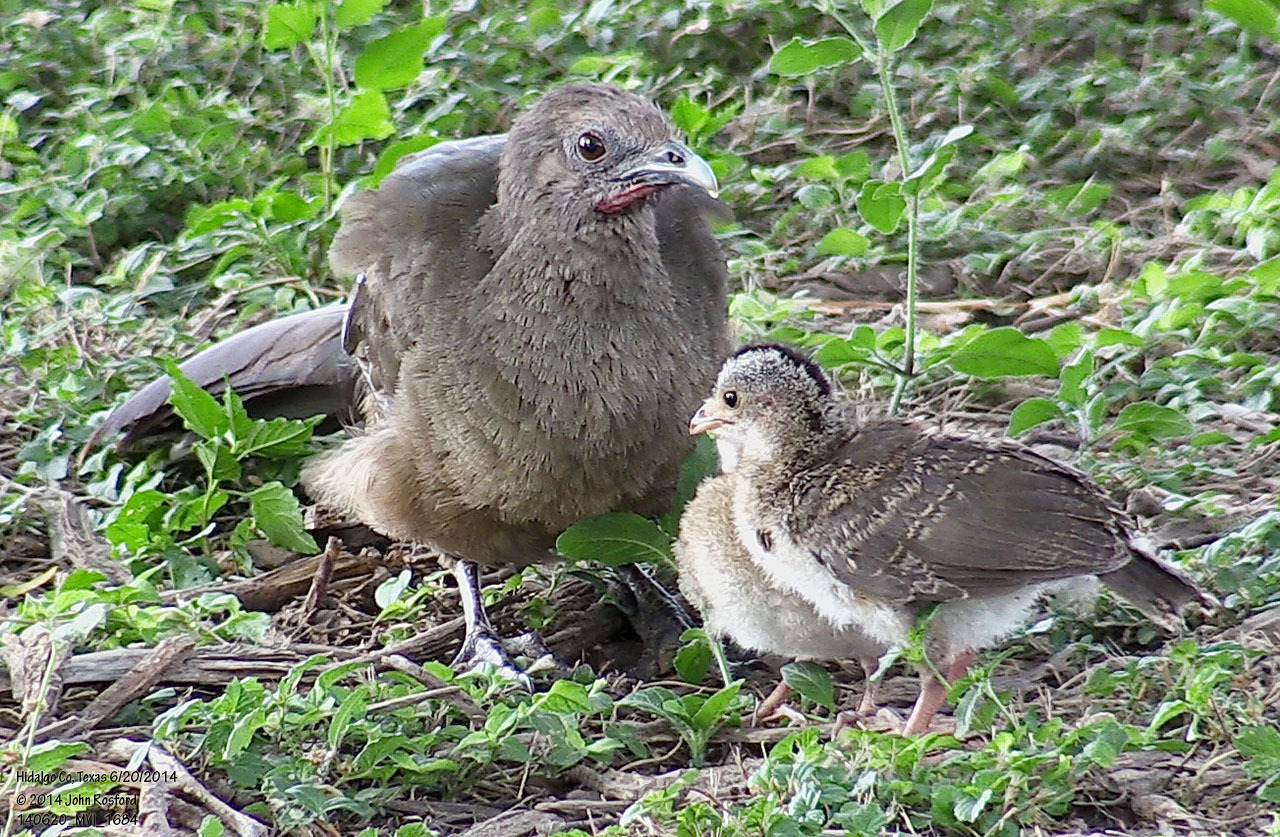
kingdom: Animalia
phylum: Chordata
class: Aves
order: Galliformes
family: Cracidae
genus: Ortalis
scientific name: Ortalis vetula
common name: Plain chachalaca
